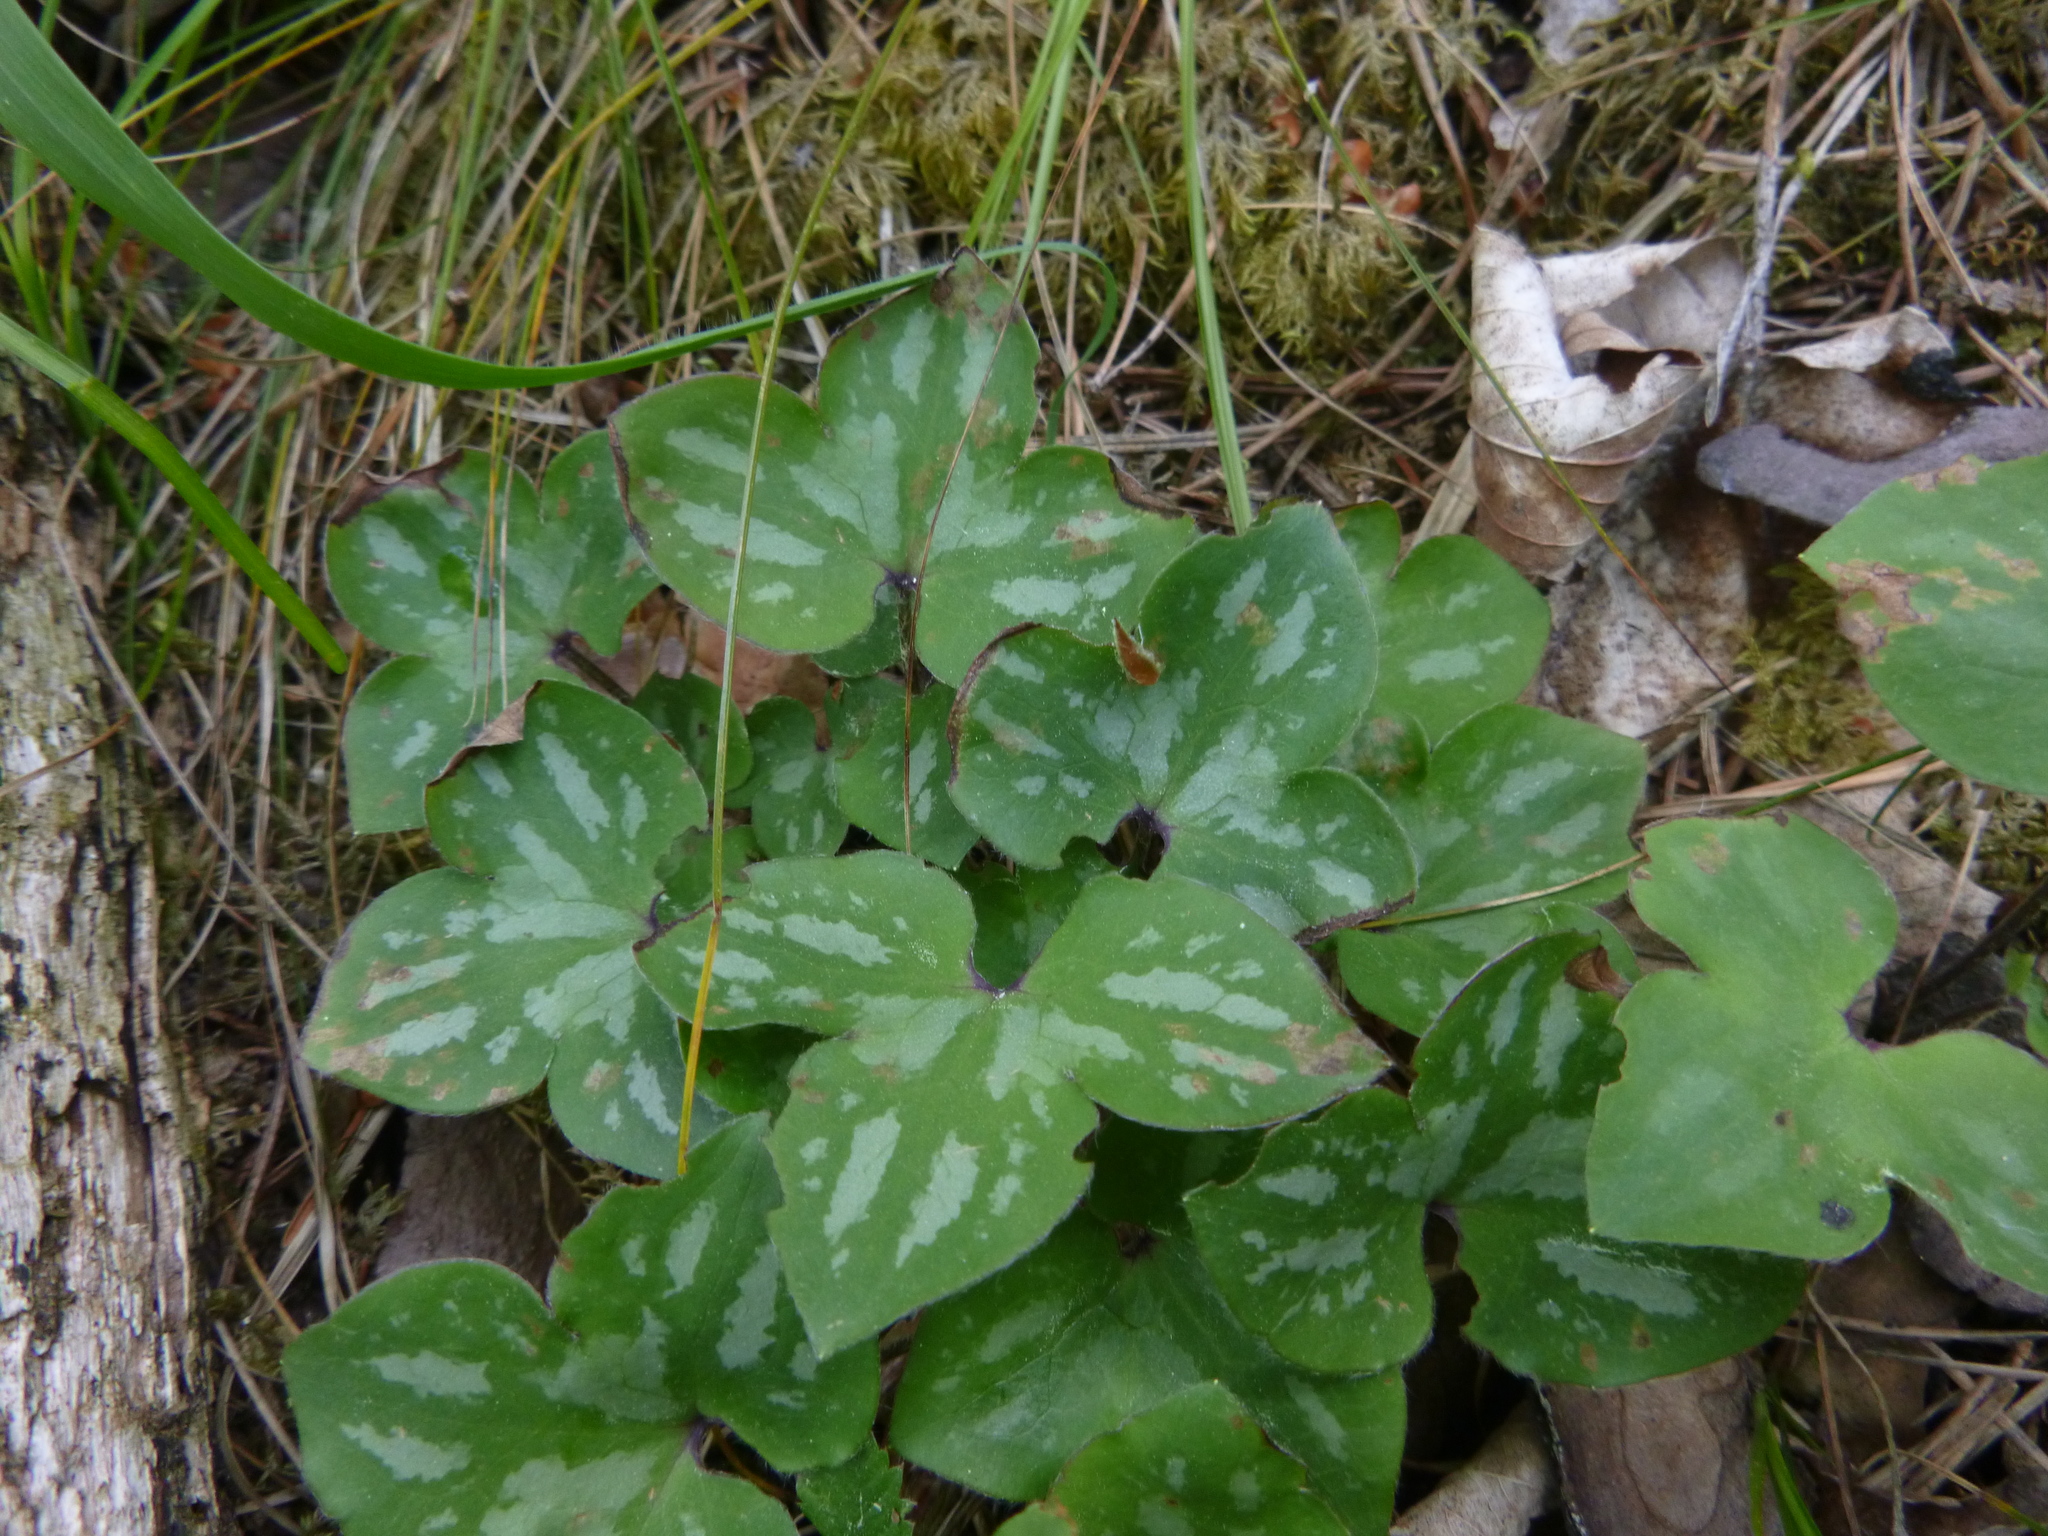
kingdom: Plantae
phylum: Tracheophyta
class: Magnoliopsida
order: Ranunculales
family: Ranunculaceae
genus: Hepatica
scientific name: Hepatica nobilis
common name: Liverleaf
